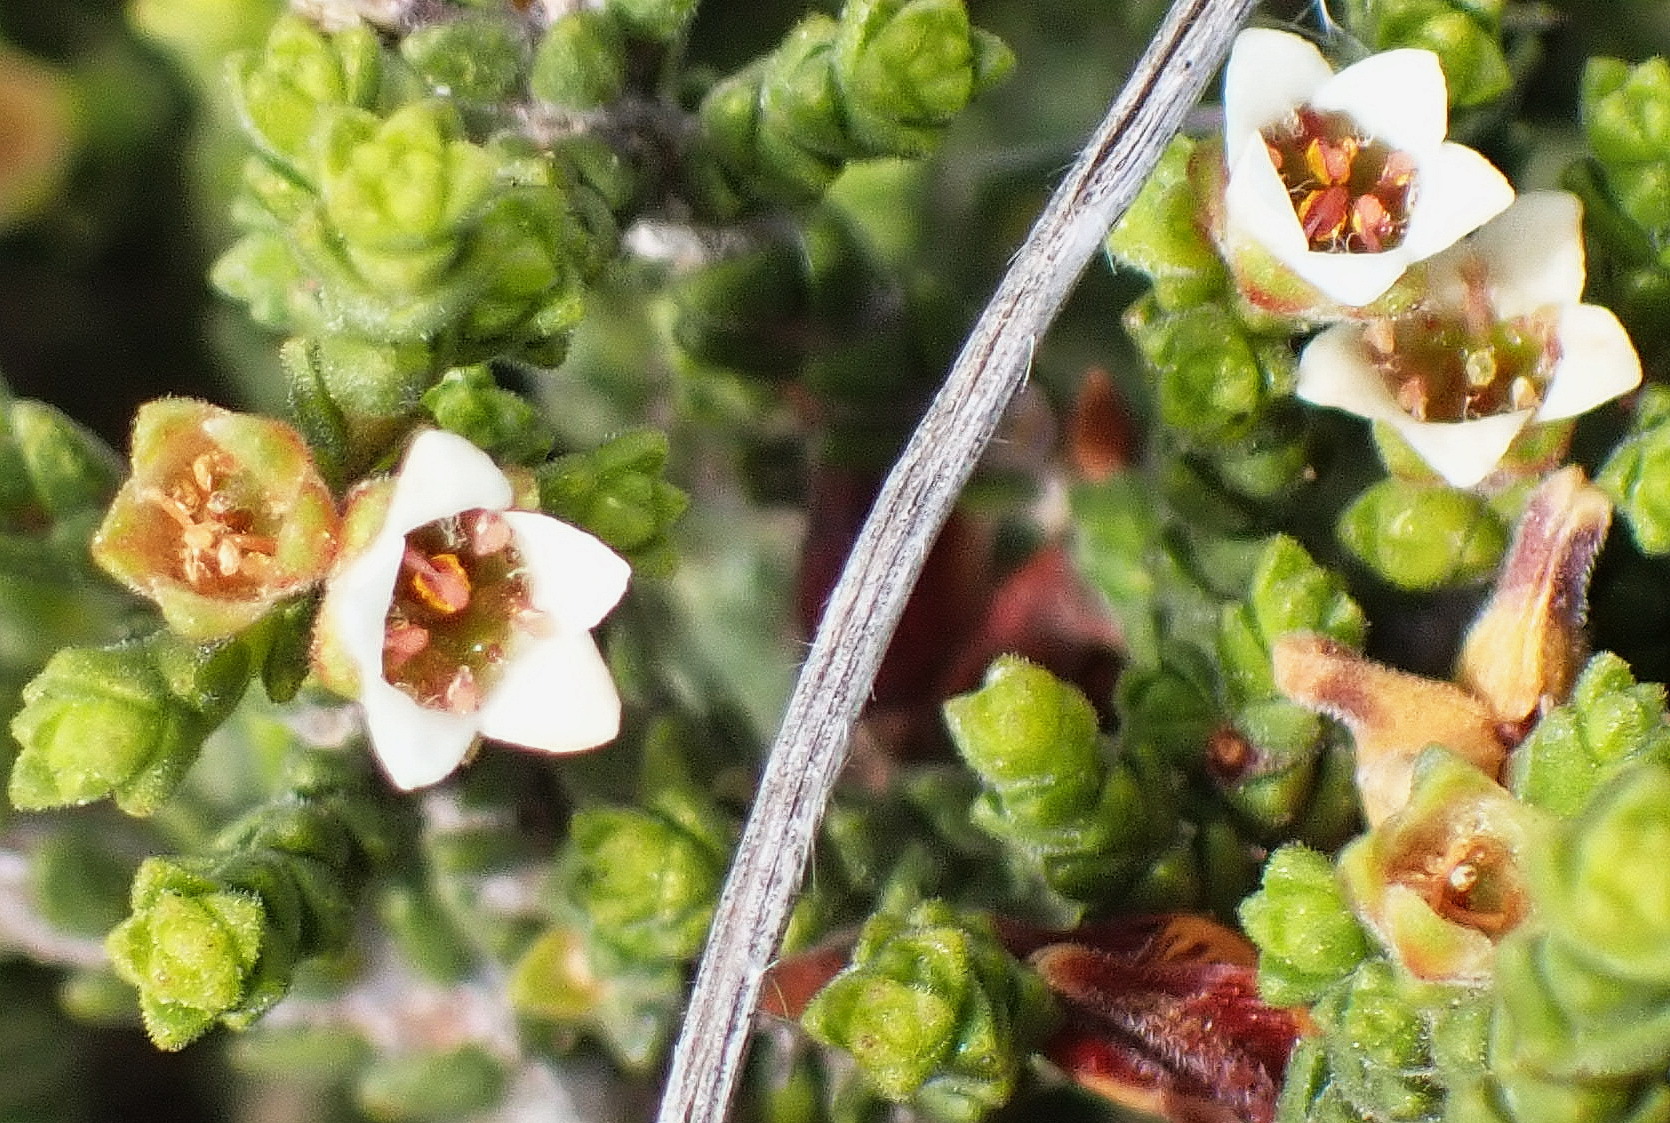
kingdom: Plantae
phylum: Tracheophyta
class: Magnoliopsida
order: Sapindales
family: Rutaceae
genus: Diosma
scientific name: Diosma apetala
